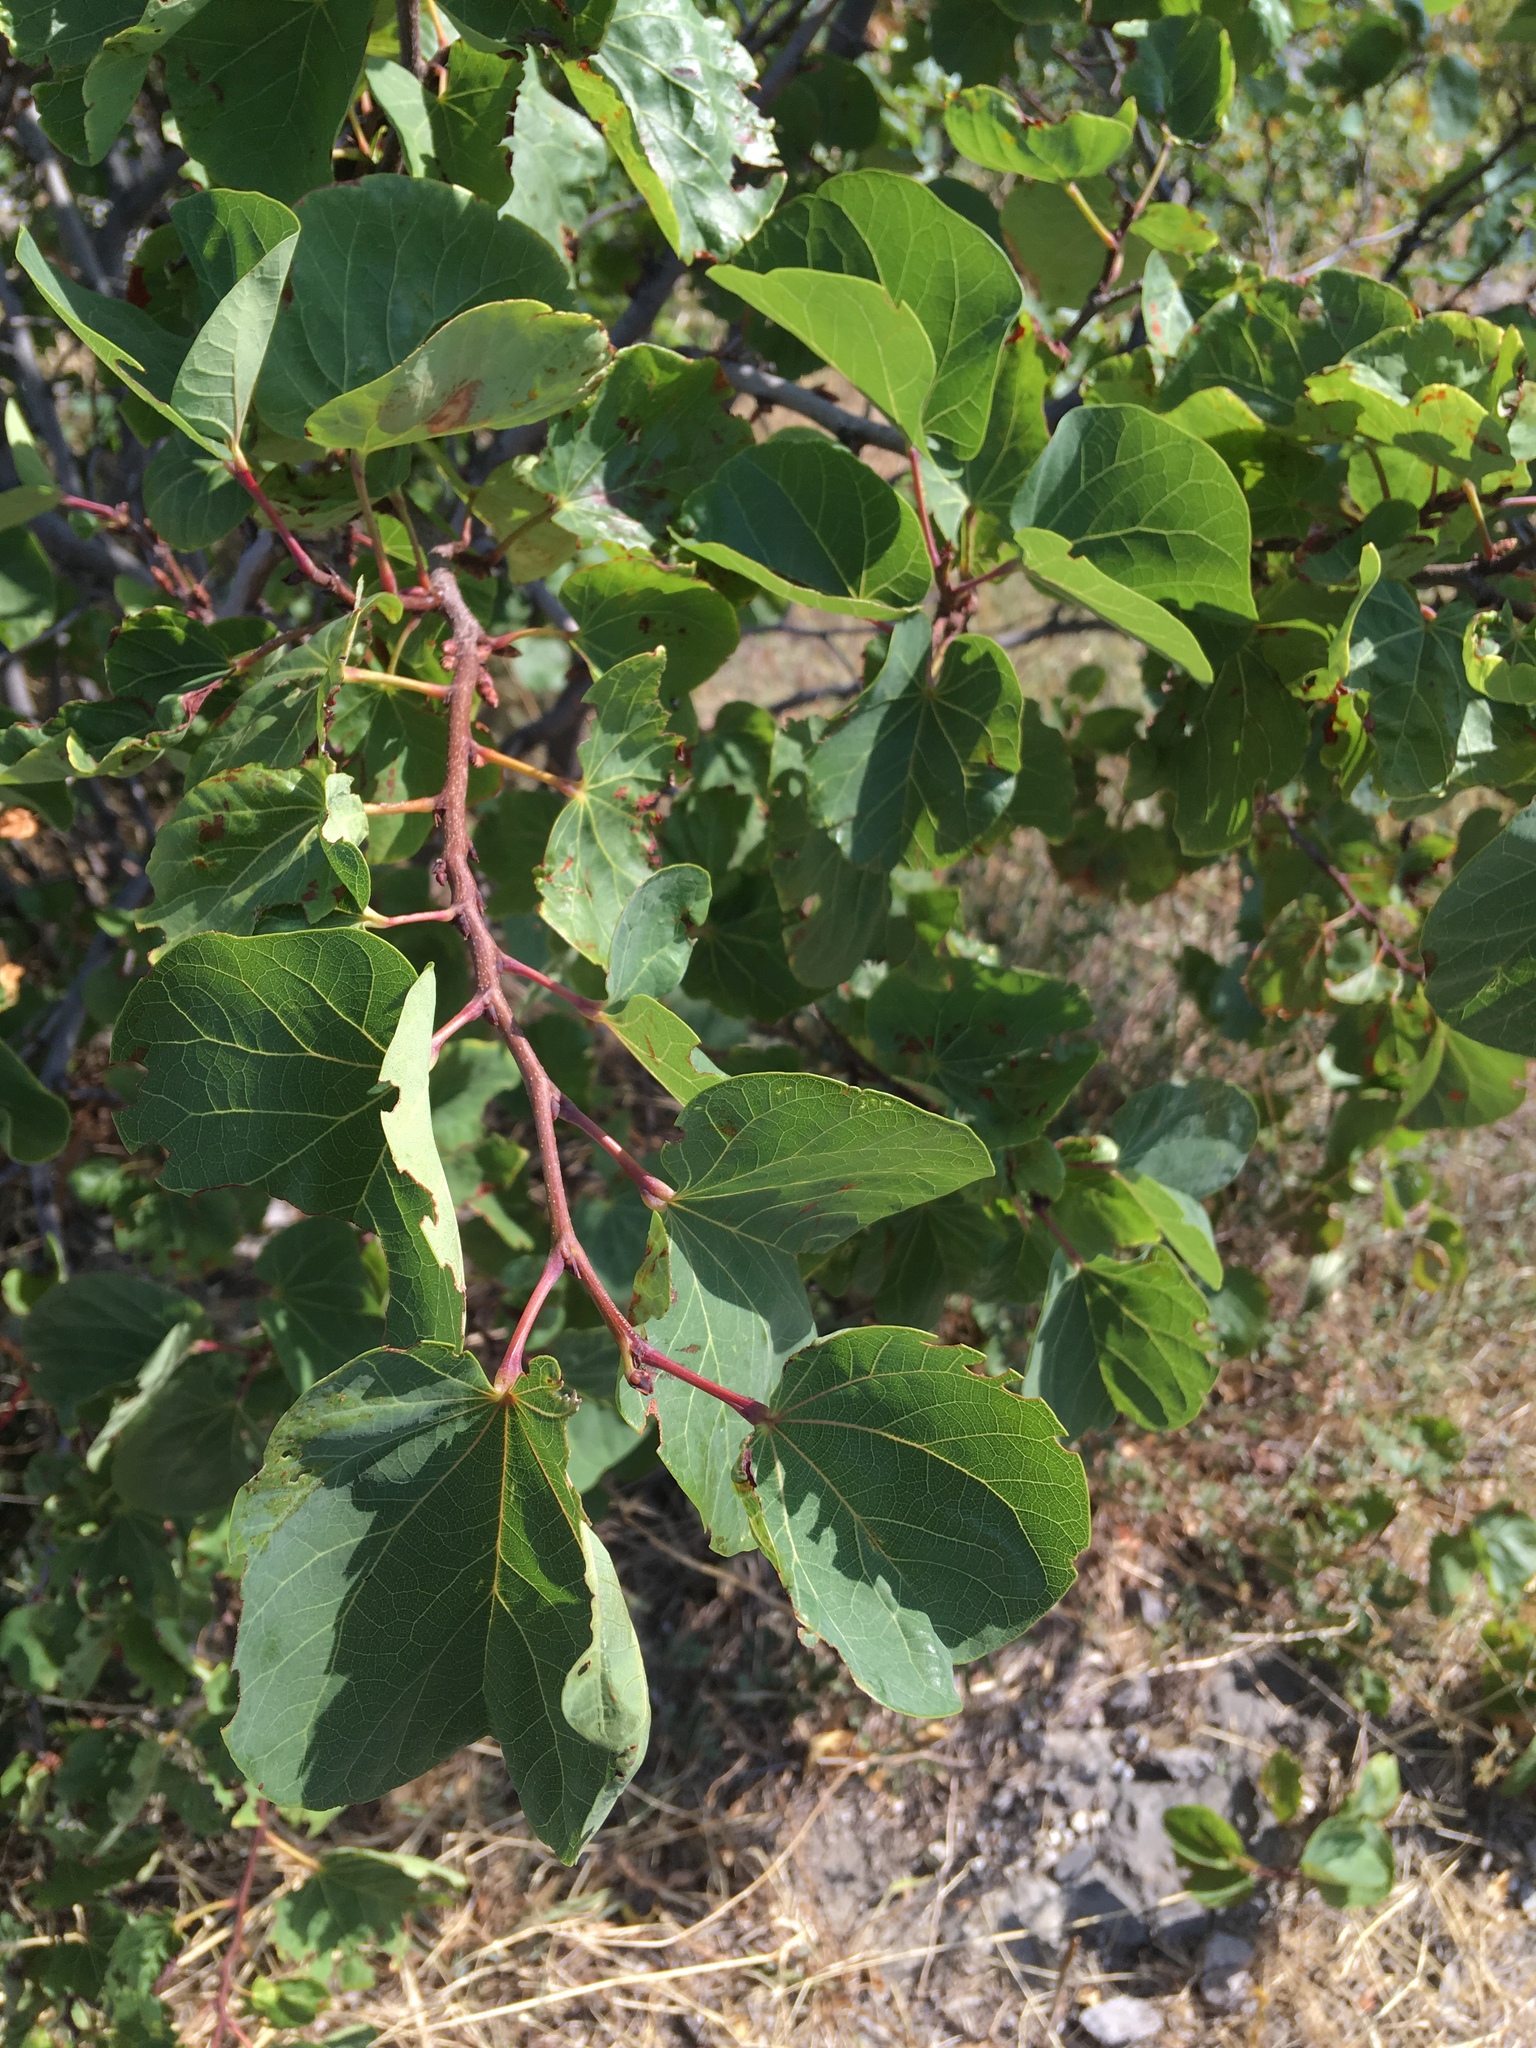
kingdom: Plantae
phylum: Tracheophyta
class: Magnoliopsida
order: Fabales
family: Fabaceae
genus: Cercis
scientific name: Cercis siliquastrum
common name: Judas tree
